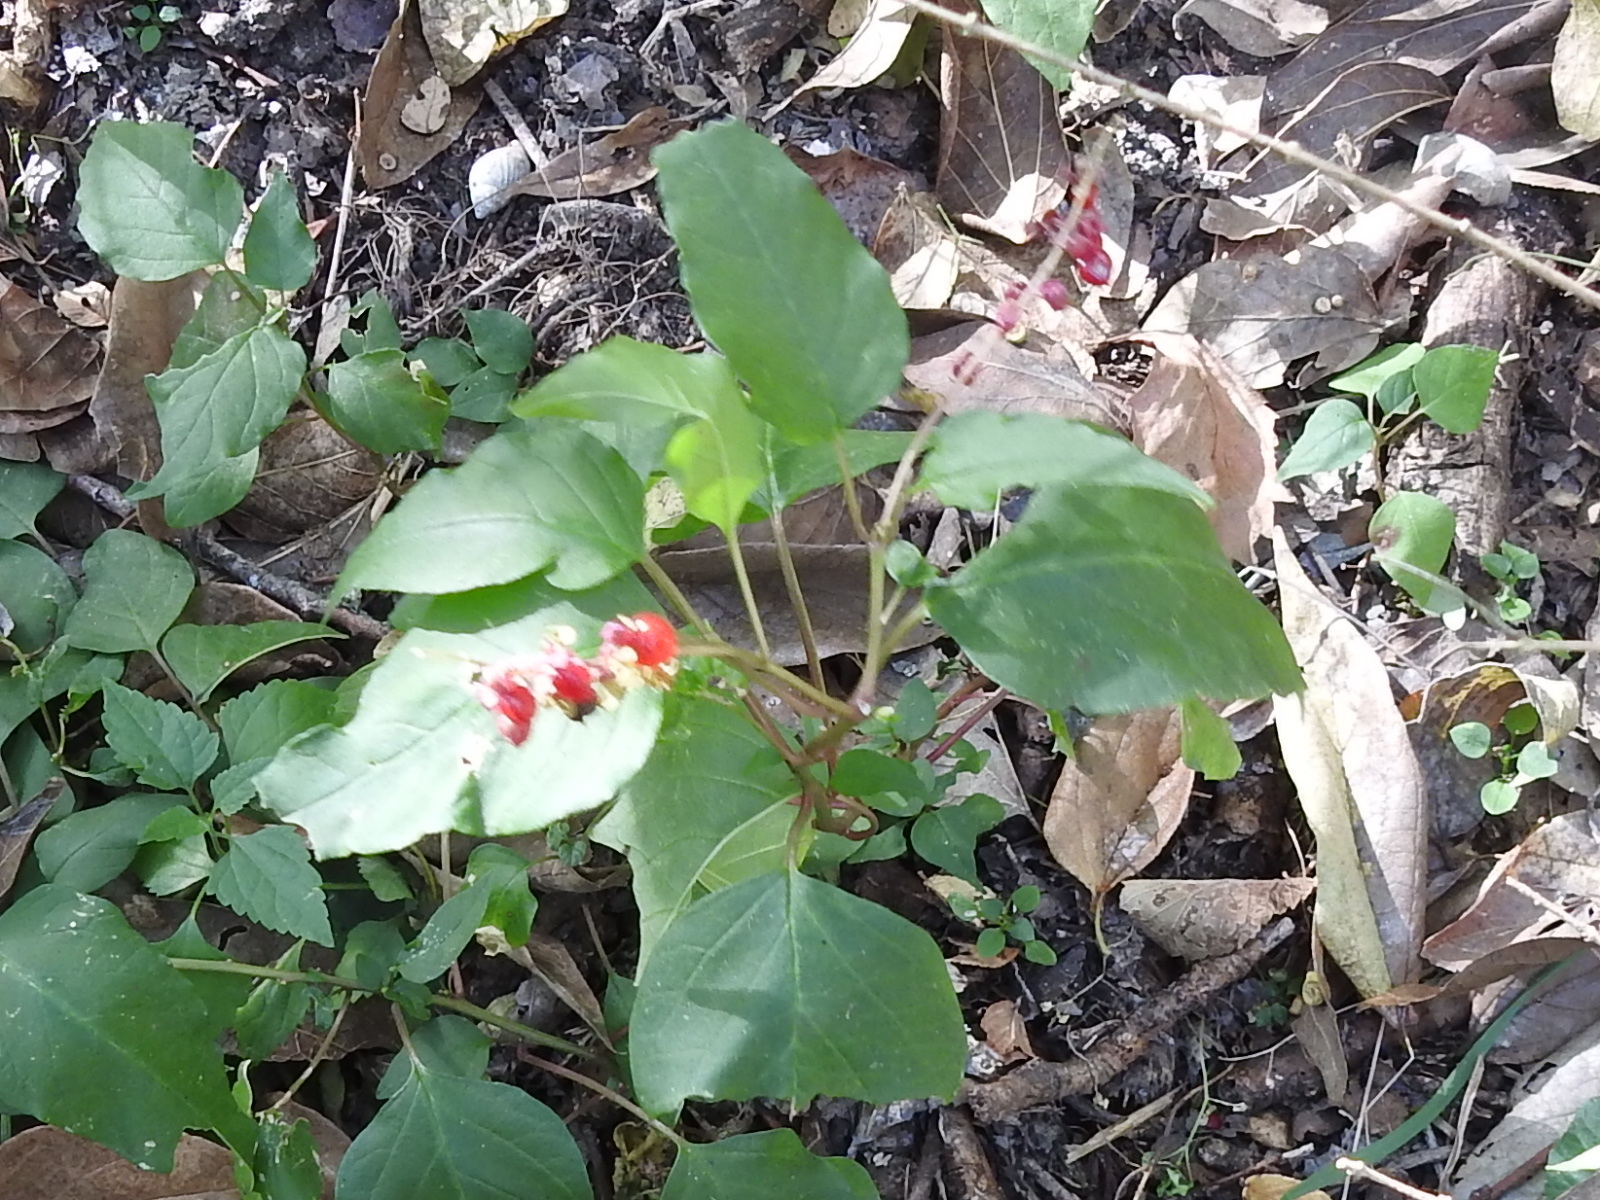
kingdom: Plantae
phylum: Tracheophyta
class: Magnoliopsida
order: Caryophyllales
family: Phytolaccaceae
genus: Rivina
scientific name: Rivina humilis
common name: Rougeplant
